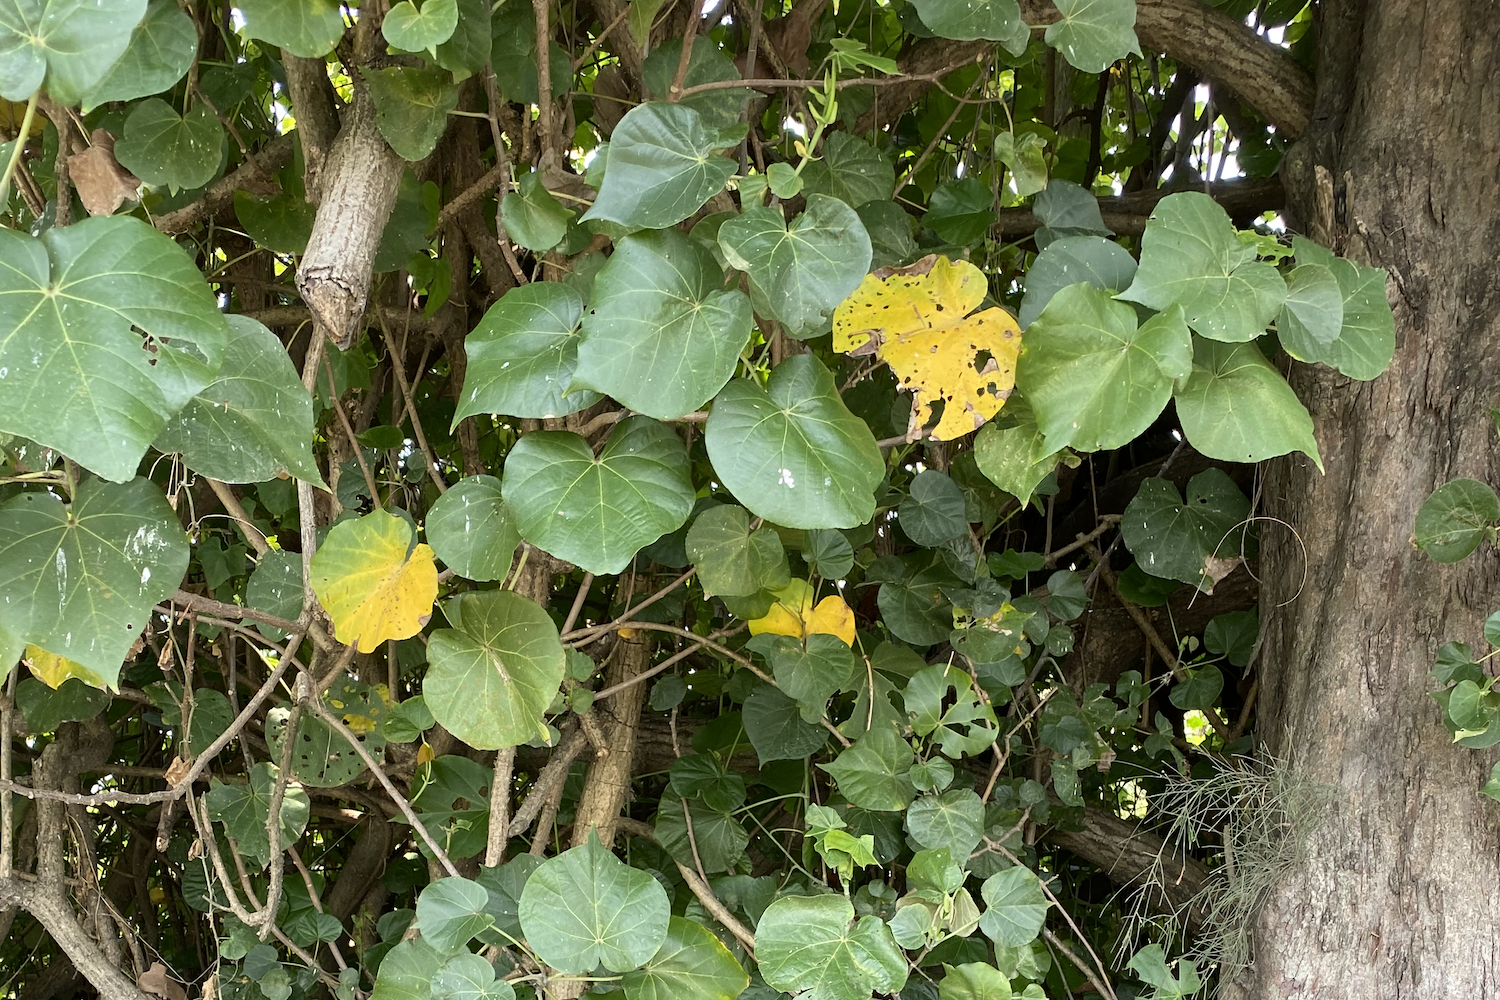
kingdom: Plantae
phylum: Tracheophyta
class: Magnoliopsida
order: Malvales
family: Malvaceae
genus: Talipariti
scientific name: Talipariti tiliaceum
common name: Sea hibiscus
